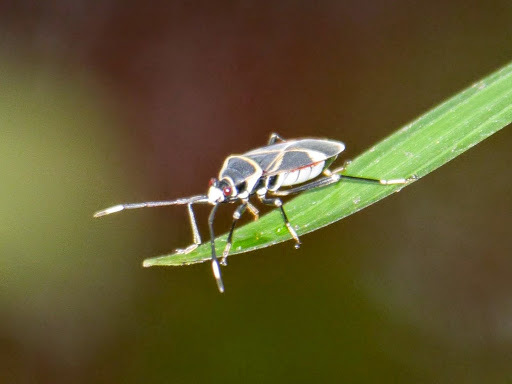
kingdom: Animalia
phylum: Arthropoda
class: Insecta
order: Hemiptera
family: Pyrrhocoridae
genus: Antilochus
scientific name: Antilochus
